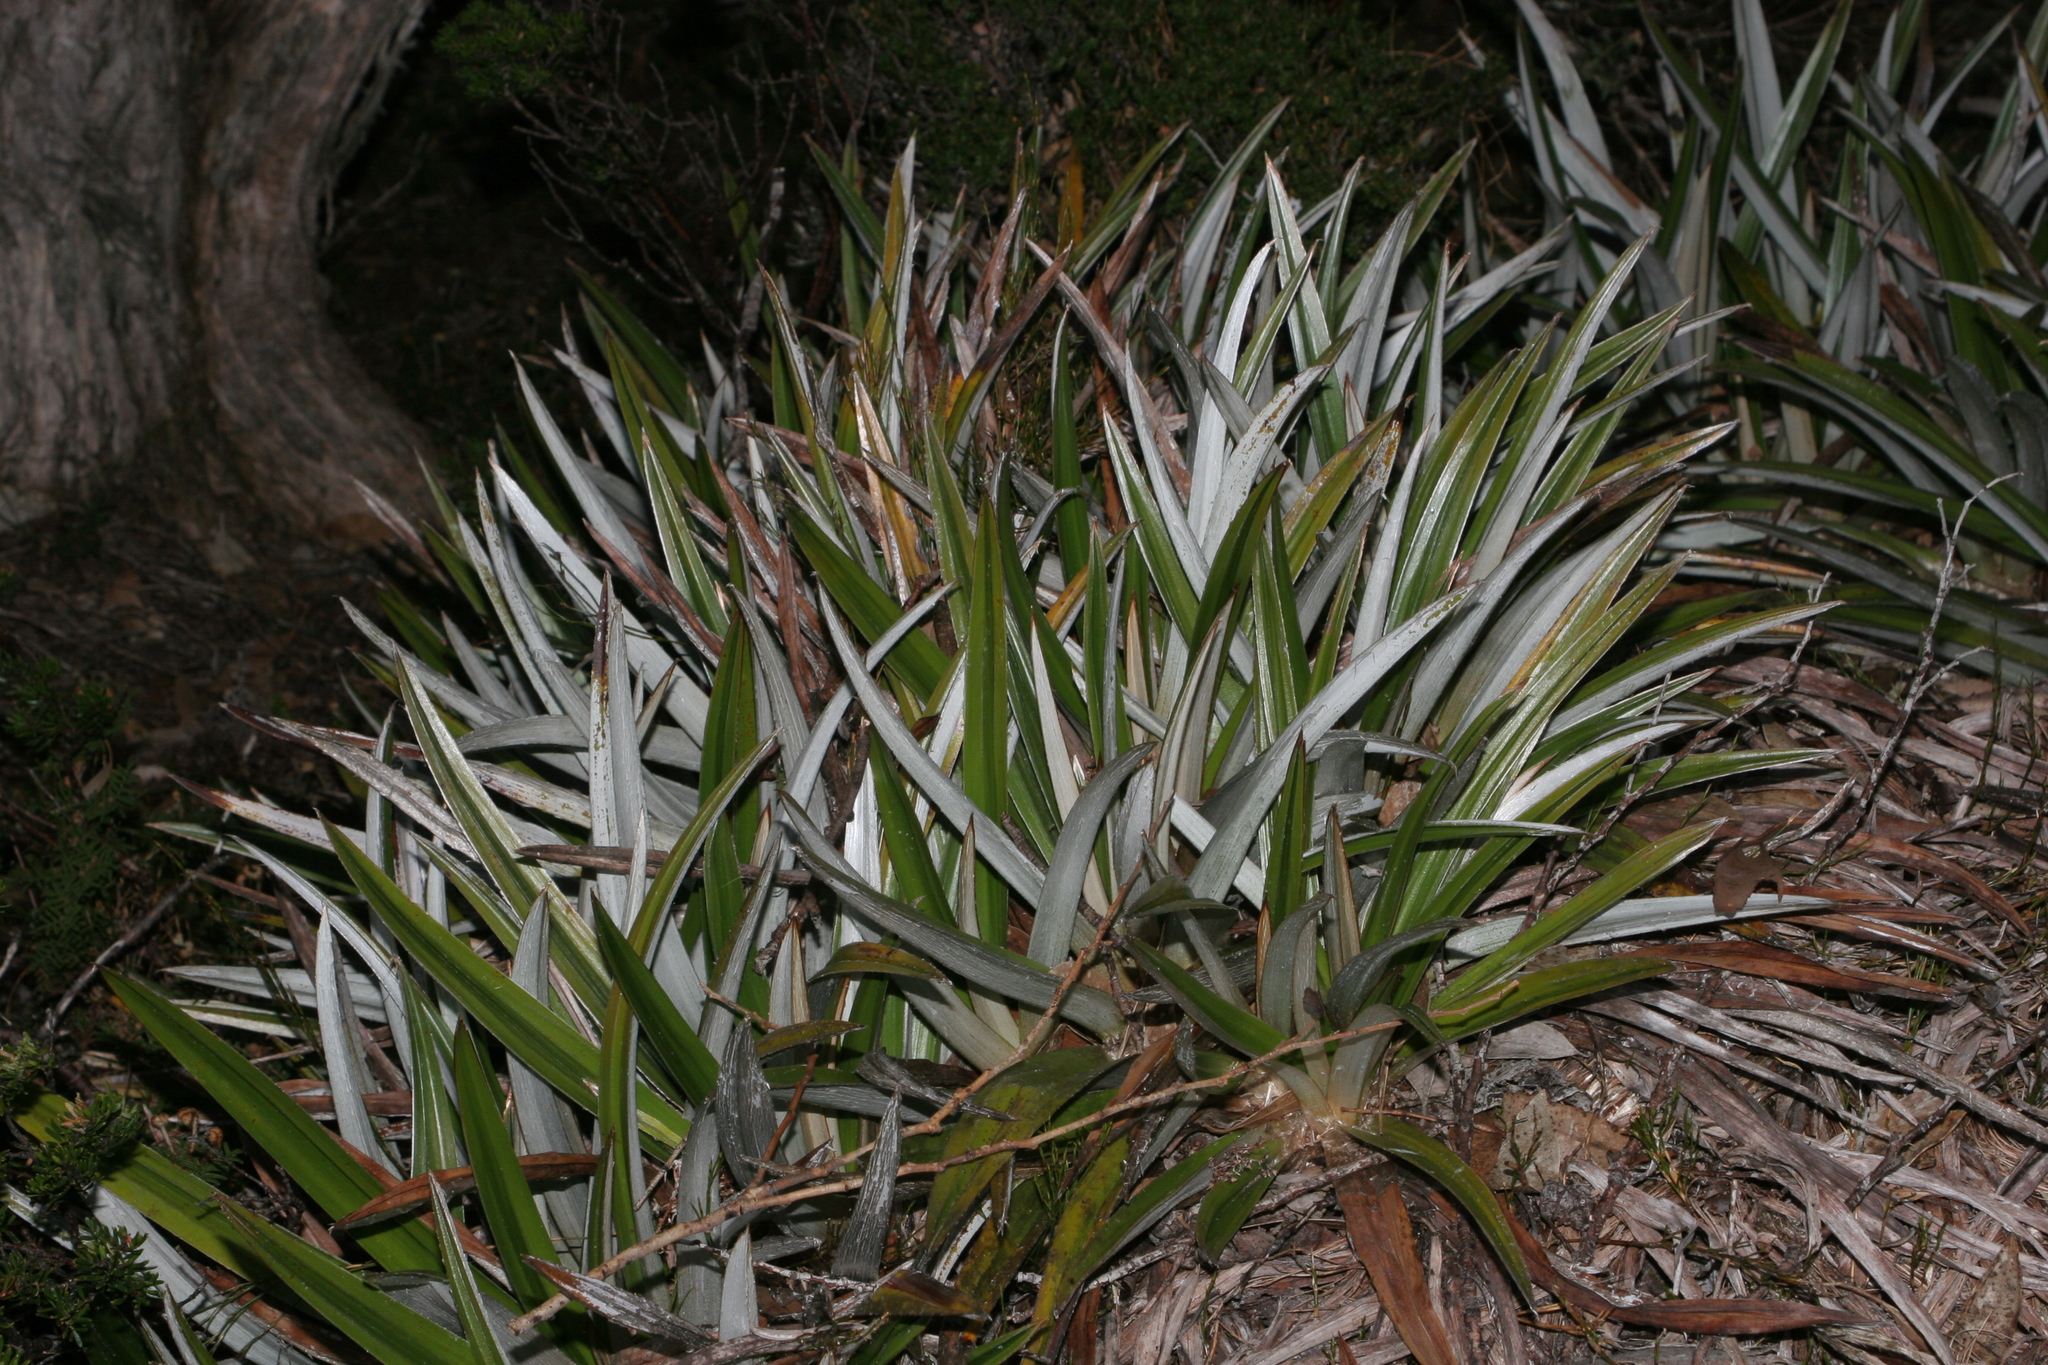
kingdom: Plantae
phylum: Tracheophyta
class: Liliopsida
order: Asparagales
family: Asteliaceae
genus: Astelia
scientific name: Astelia alpina
